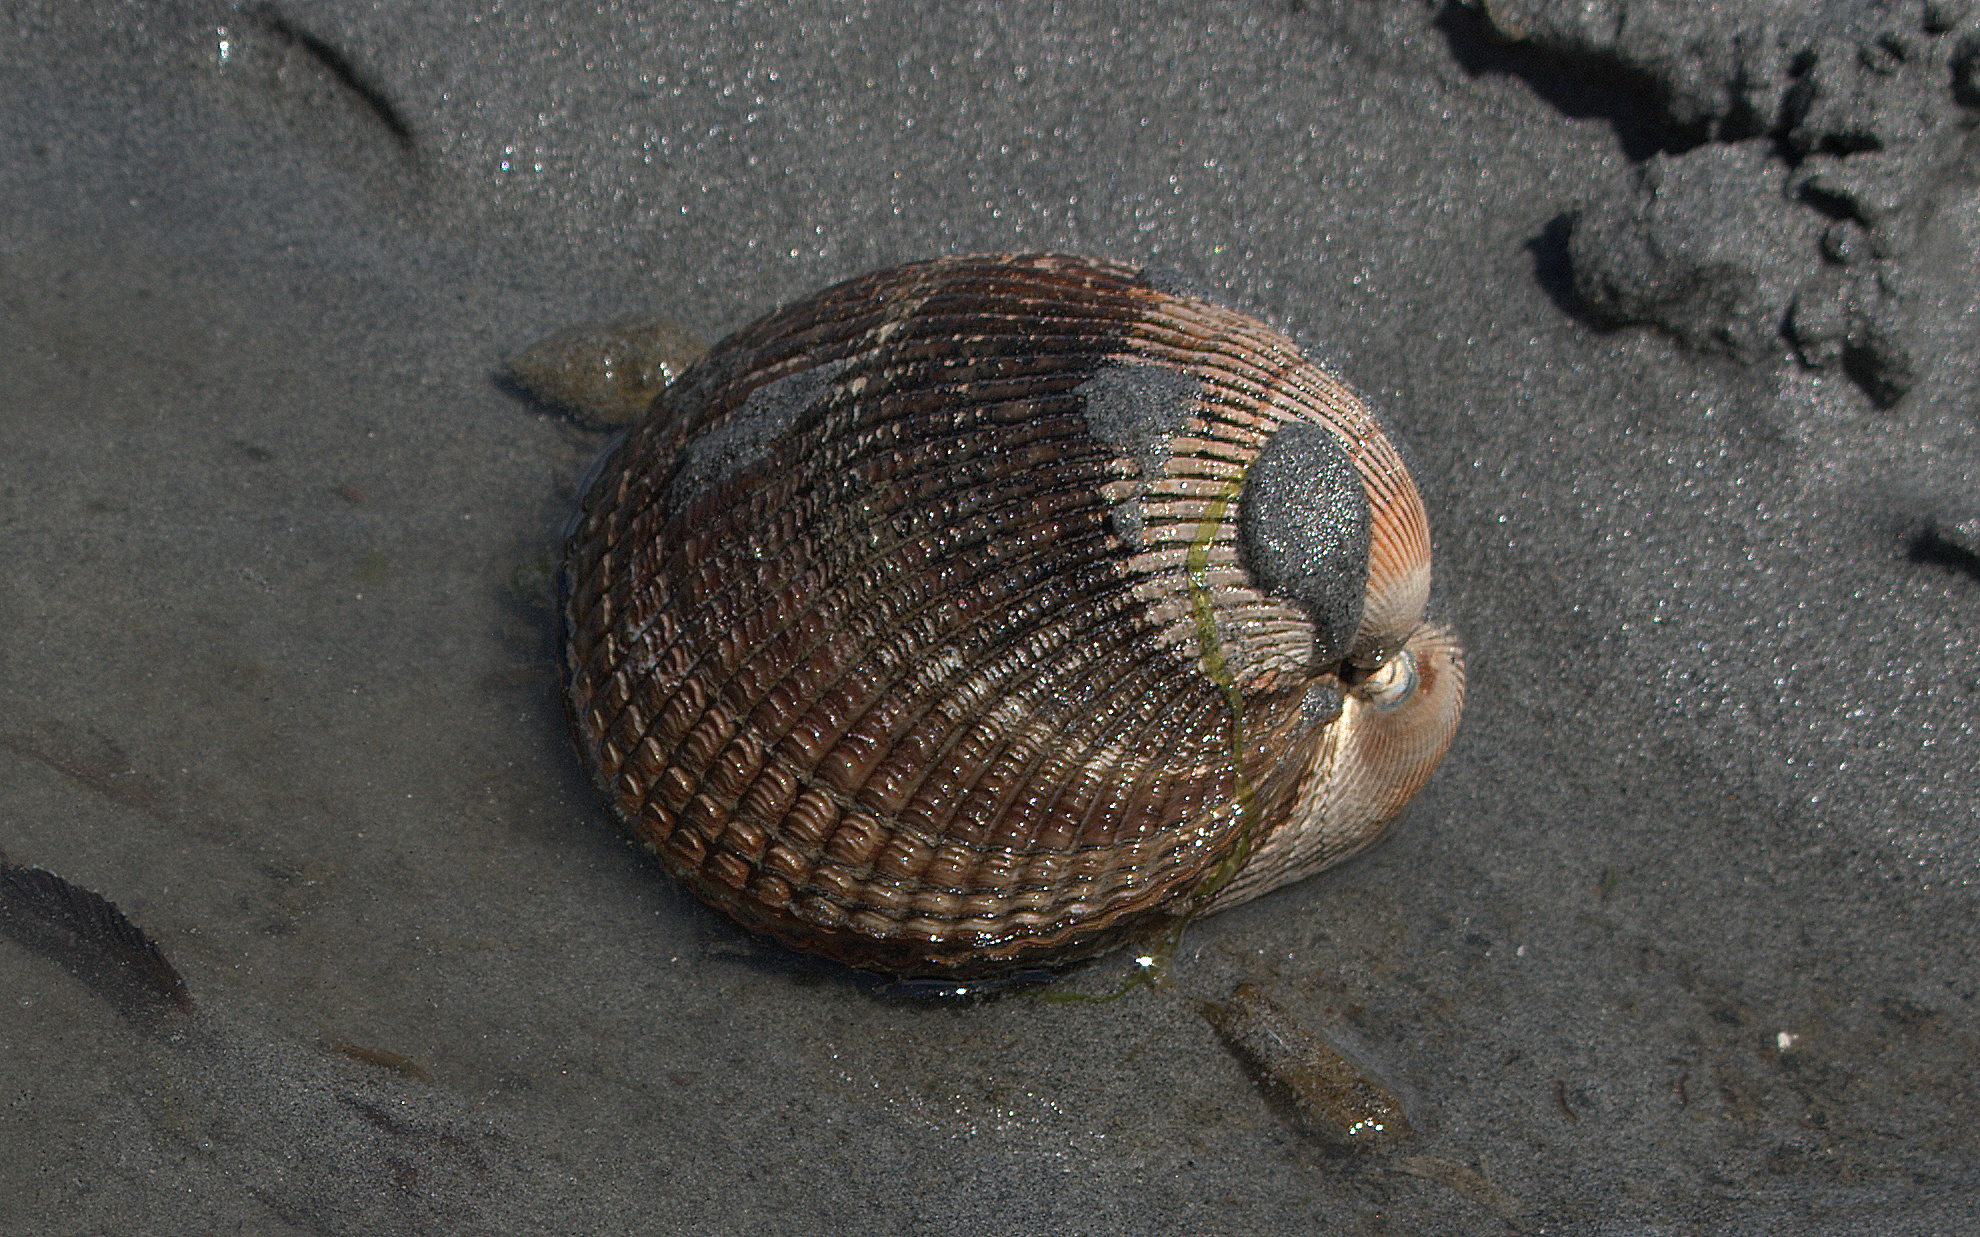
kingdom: Animalia
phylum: Mollusca
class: Bivalvia
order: Cardiida
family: Cardiidae
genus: Clinocardium
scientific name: Clinocardium nuttallii
